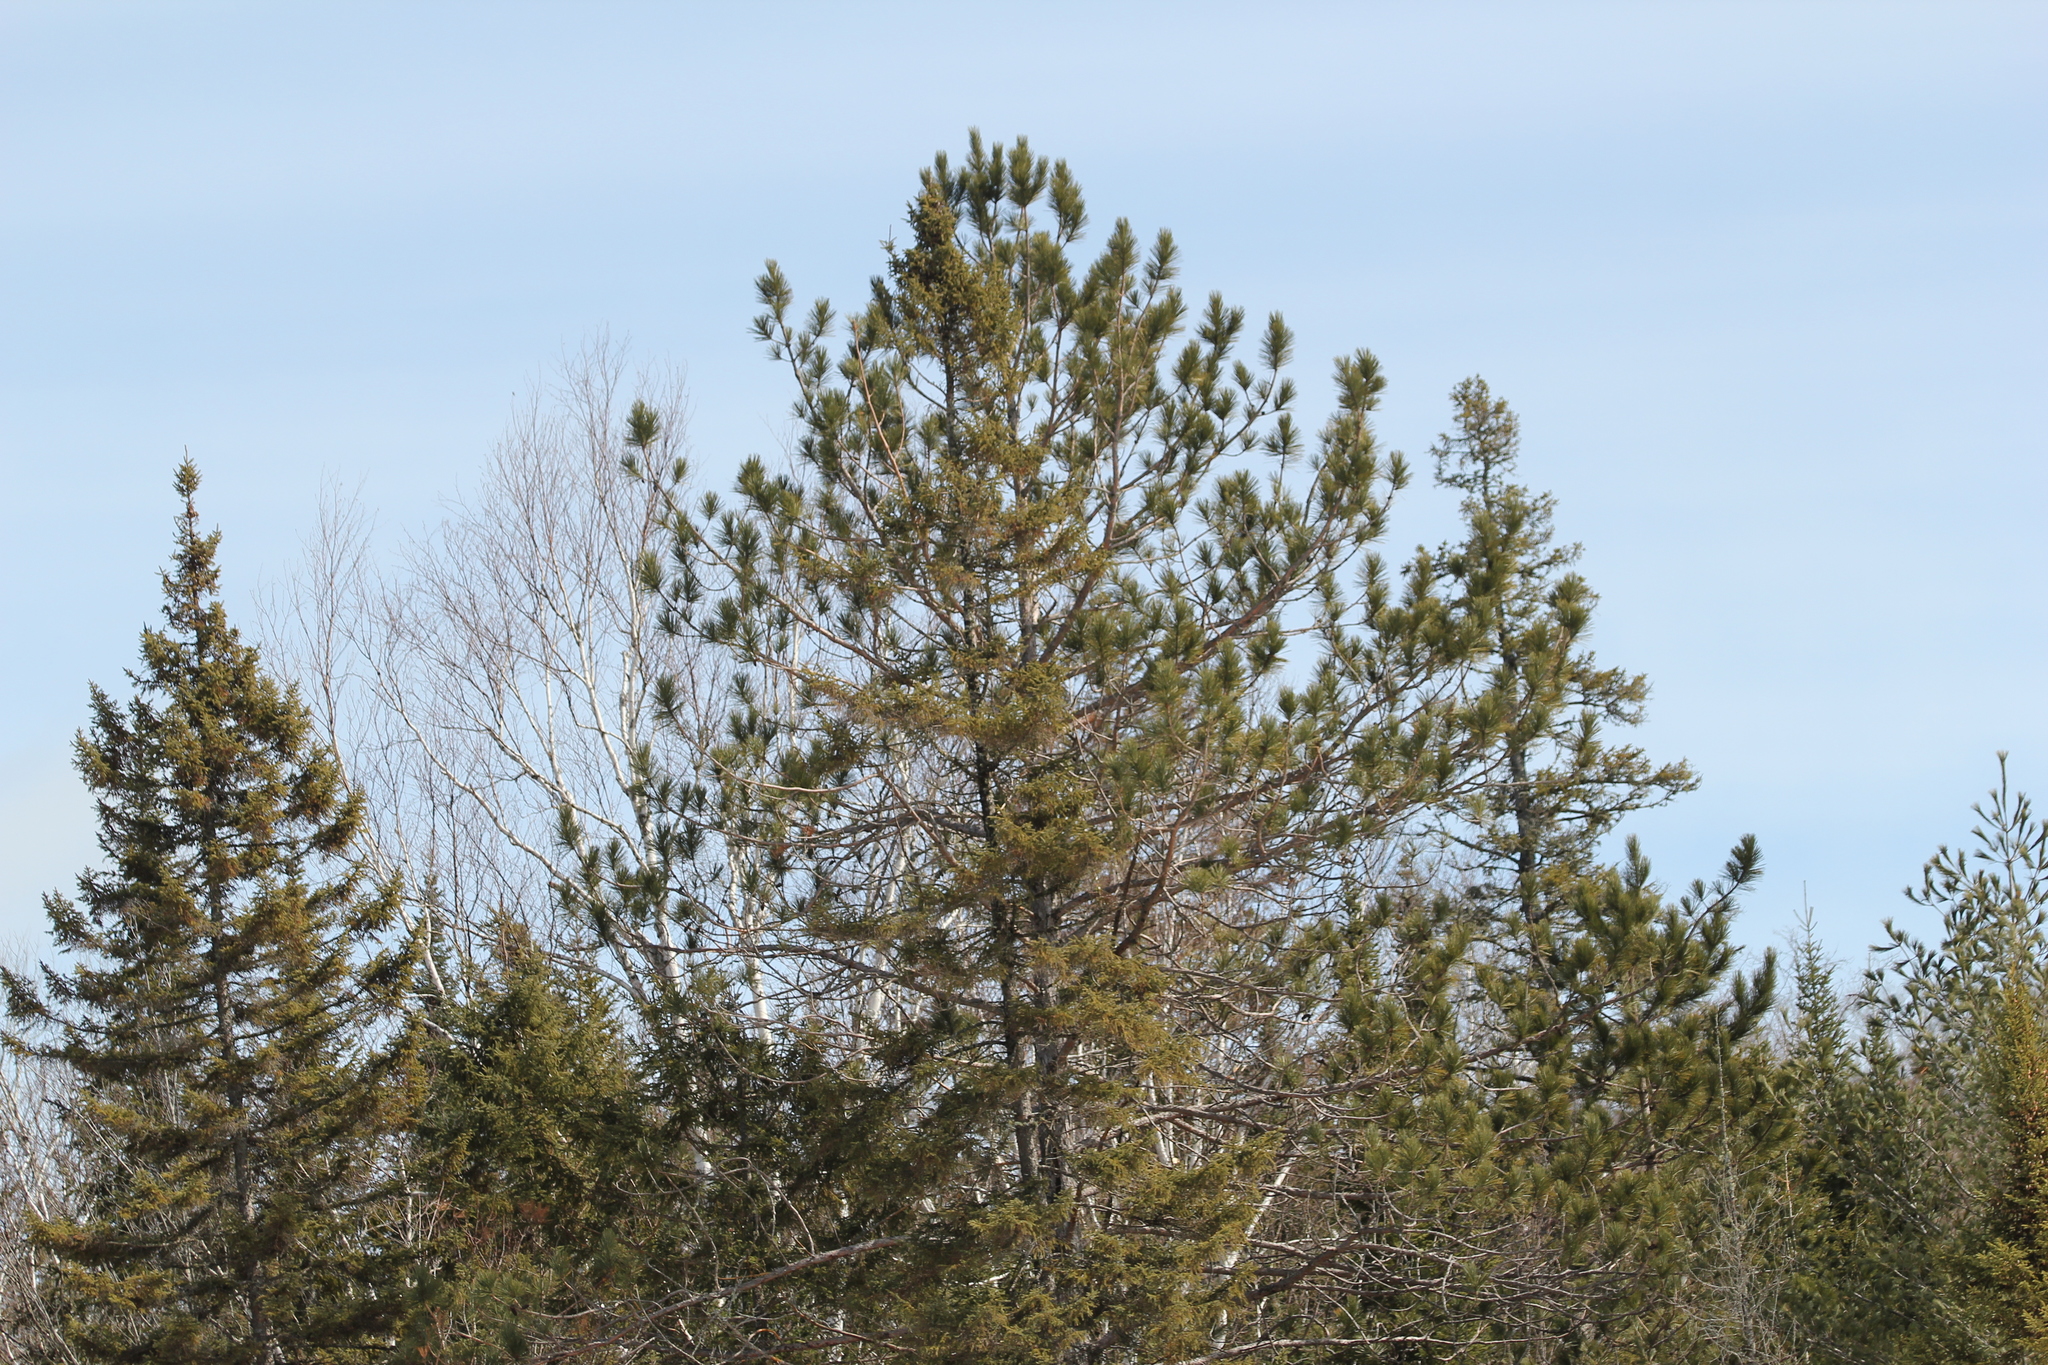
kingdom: Plantae
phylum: Tracheophyta
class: Pinopsida
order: Pinales
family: Pinaceae
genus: Pinus
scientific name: Pinus resinosa
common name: Norway pine
